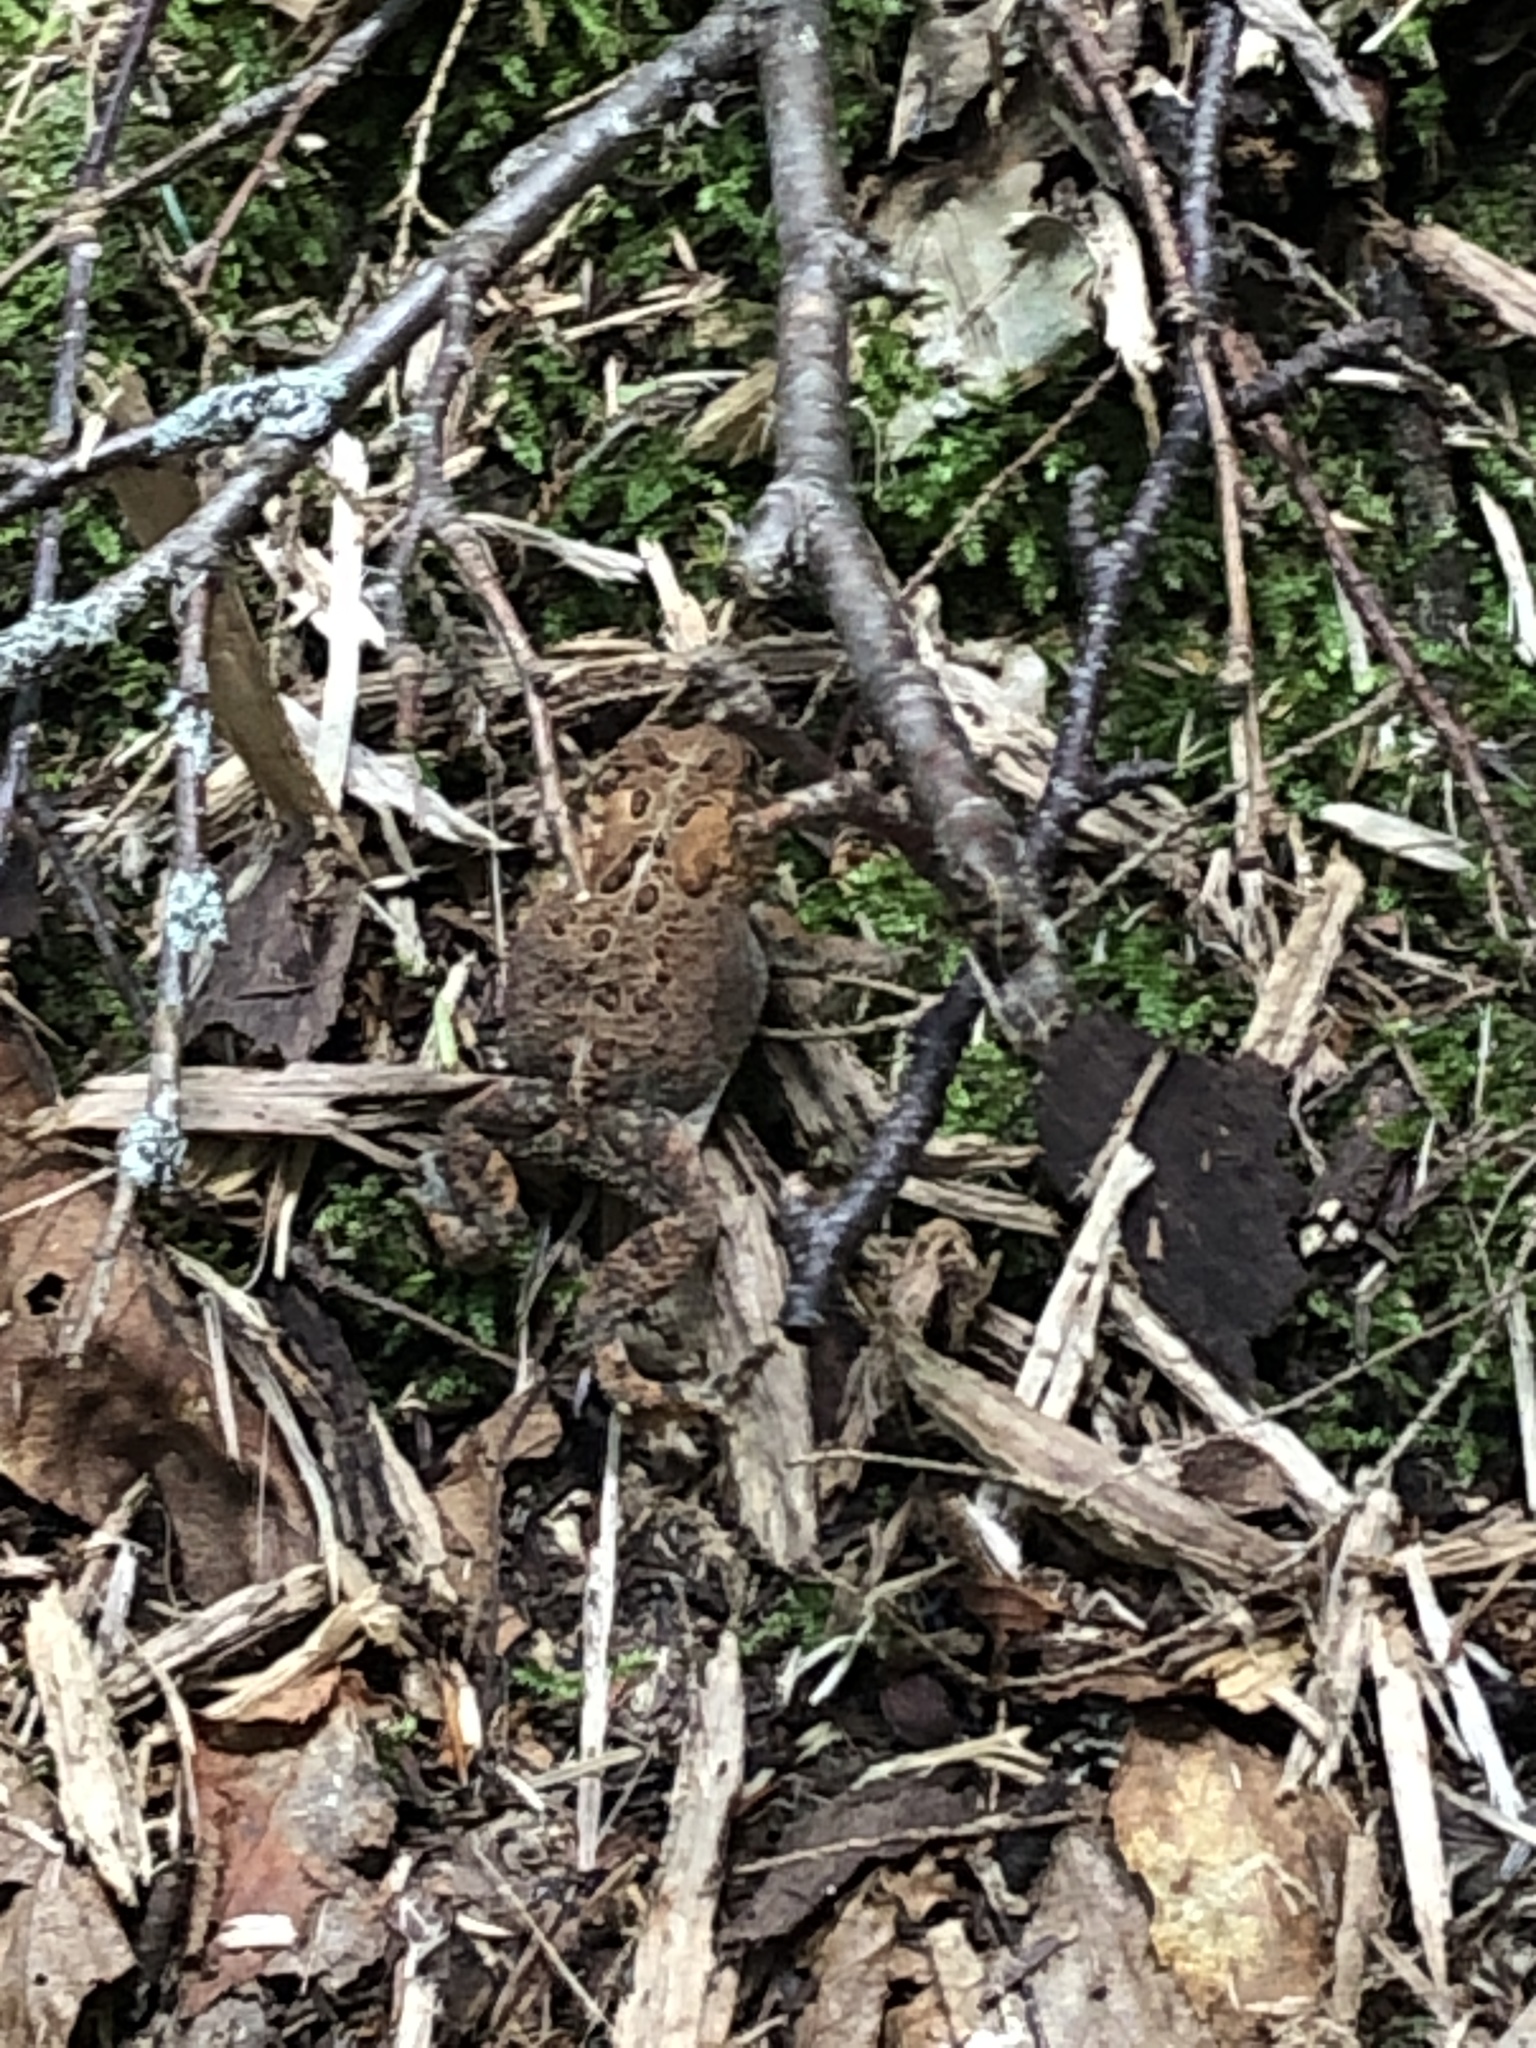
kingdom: Animalia
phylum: Chordata
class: Amphibia
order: Anura
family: Bufonidae
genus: Anaxyrus
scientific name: Anaxyrus americanus
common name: American toad
